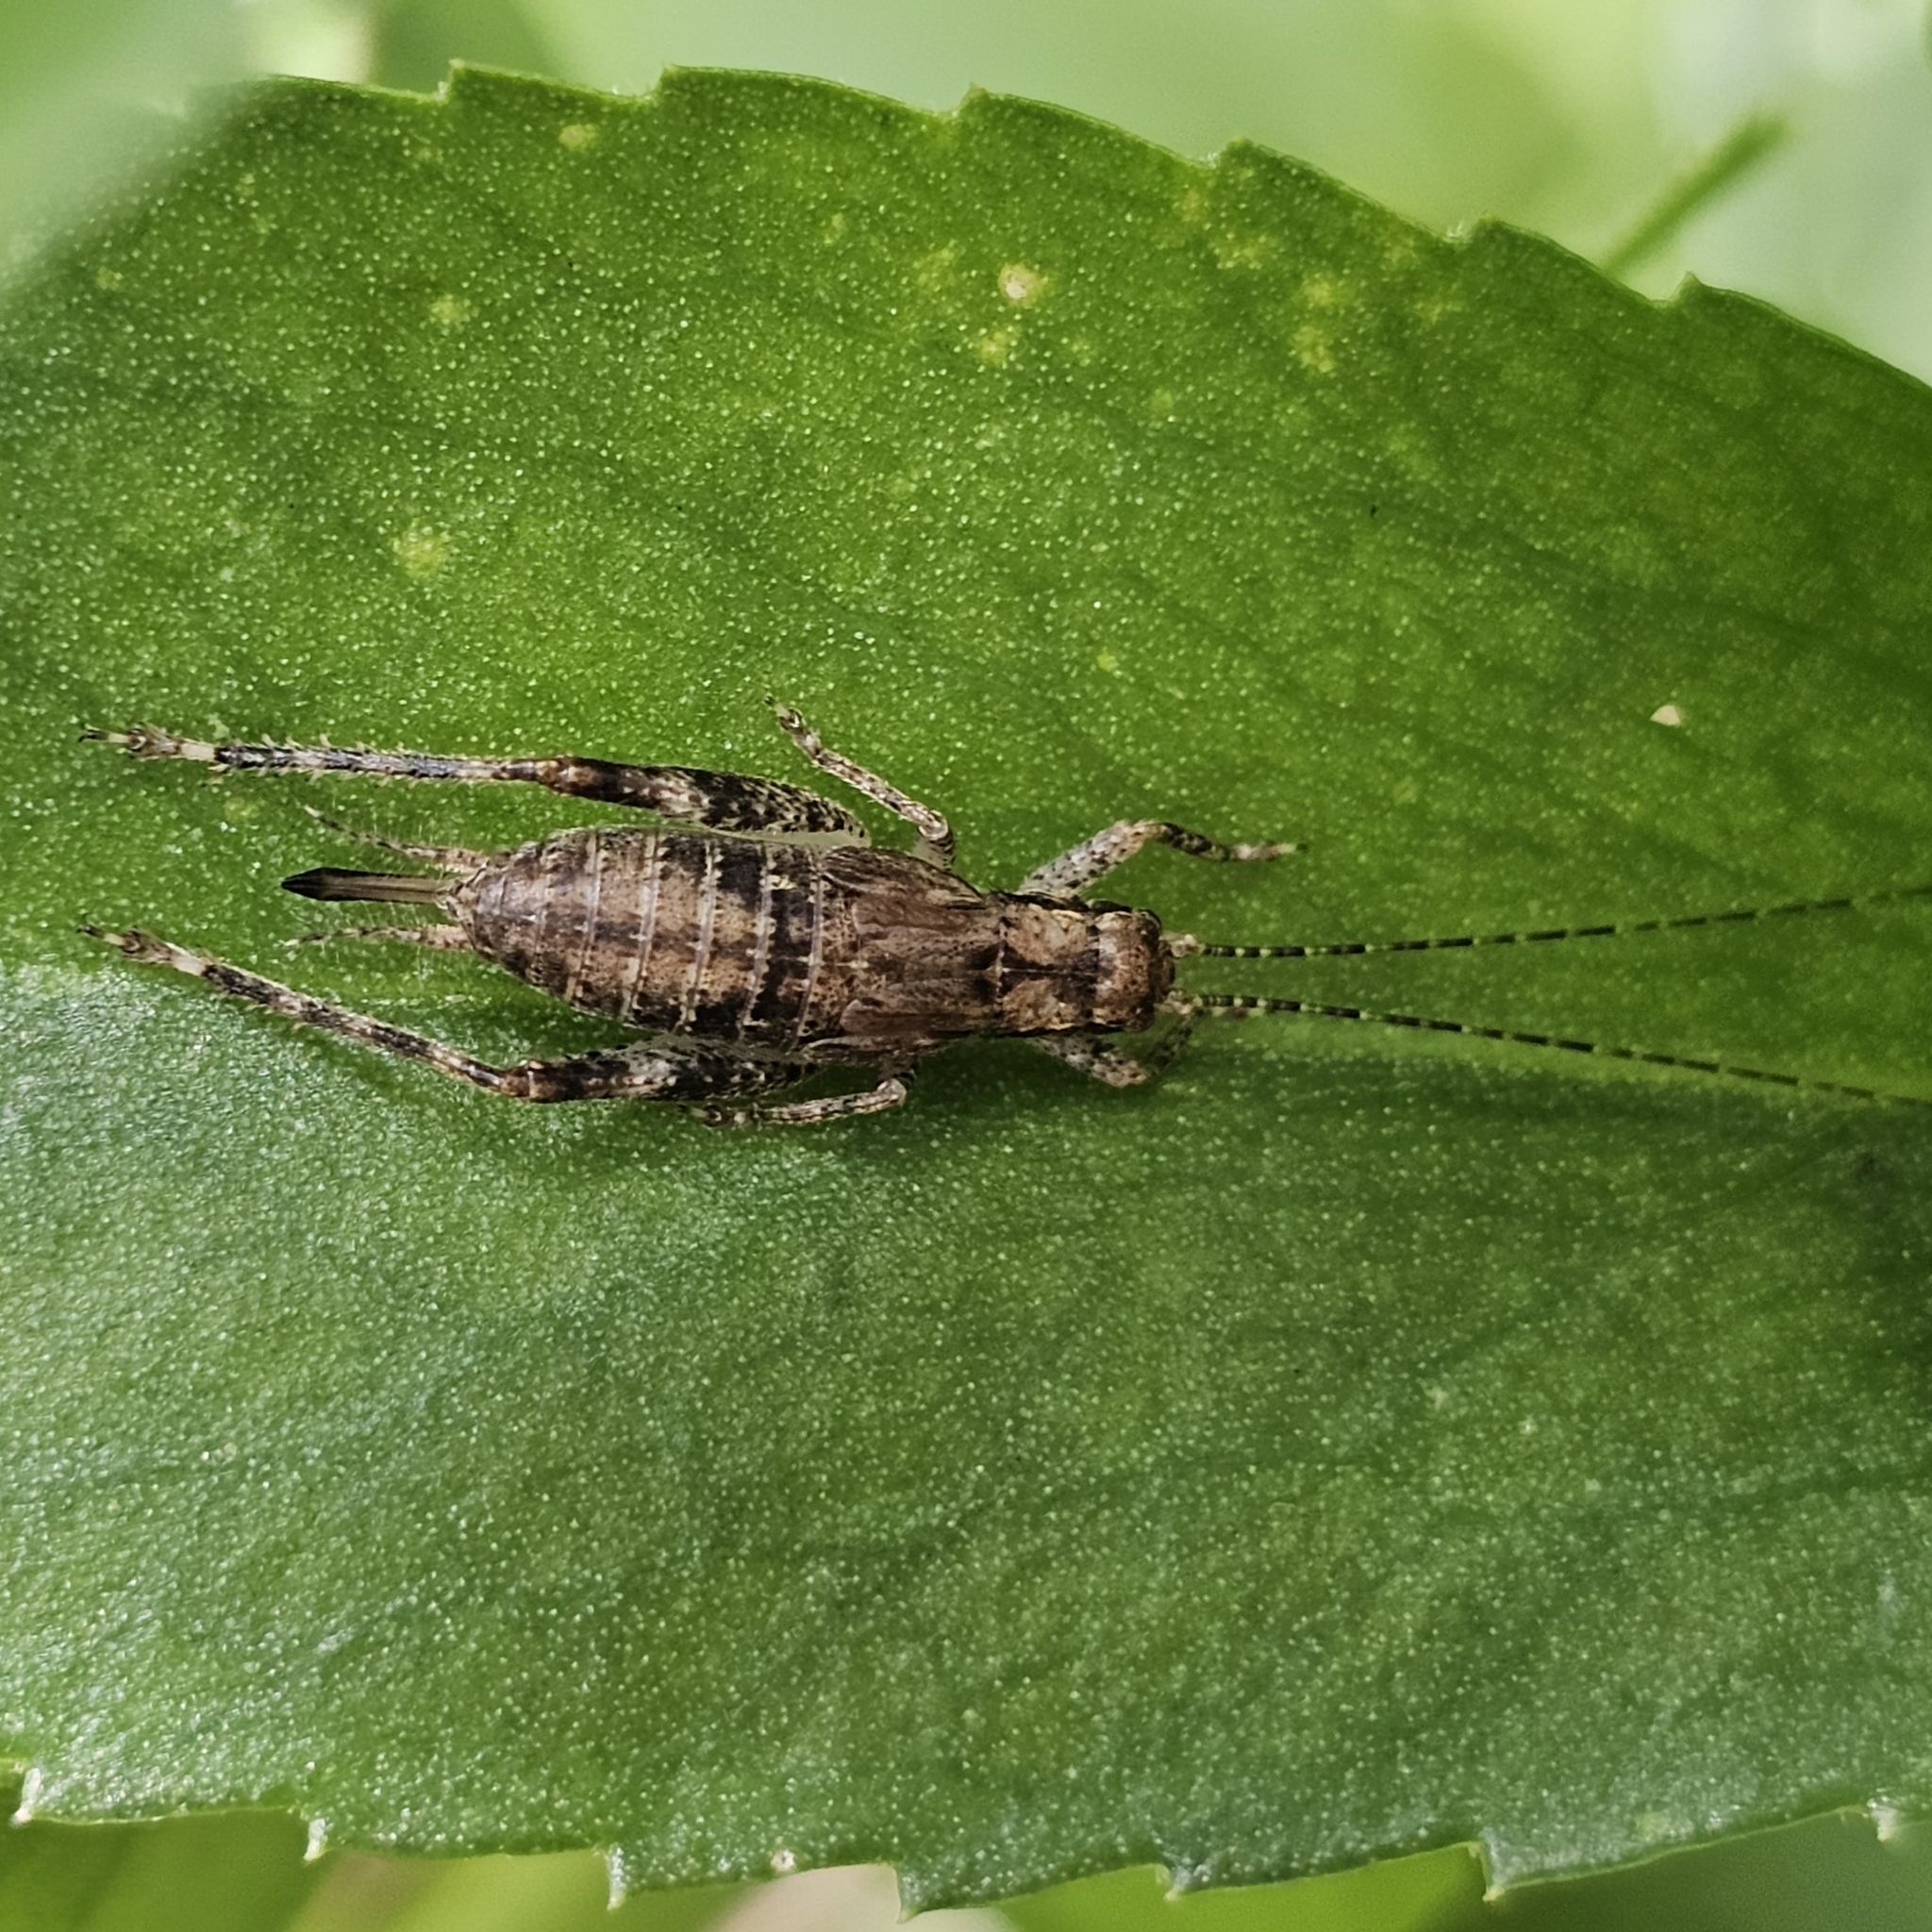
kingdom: Animalia
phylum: Arthropoda
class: Insecta
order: Orthoptera
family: Gryllidae
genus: Hapithus
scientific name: Hapithus saltator
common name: Jumping bush cricket
